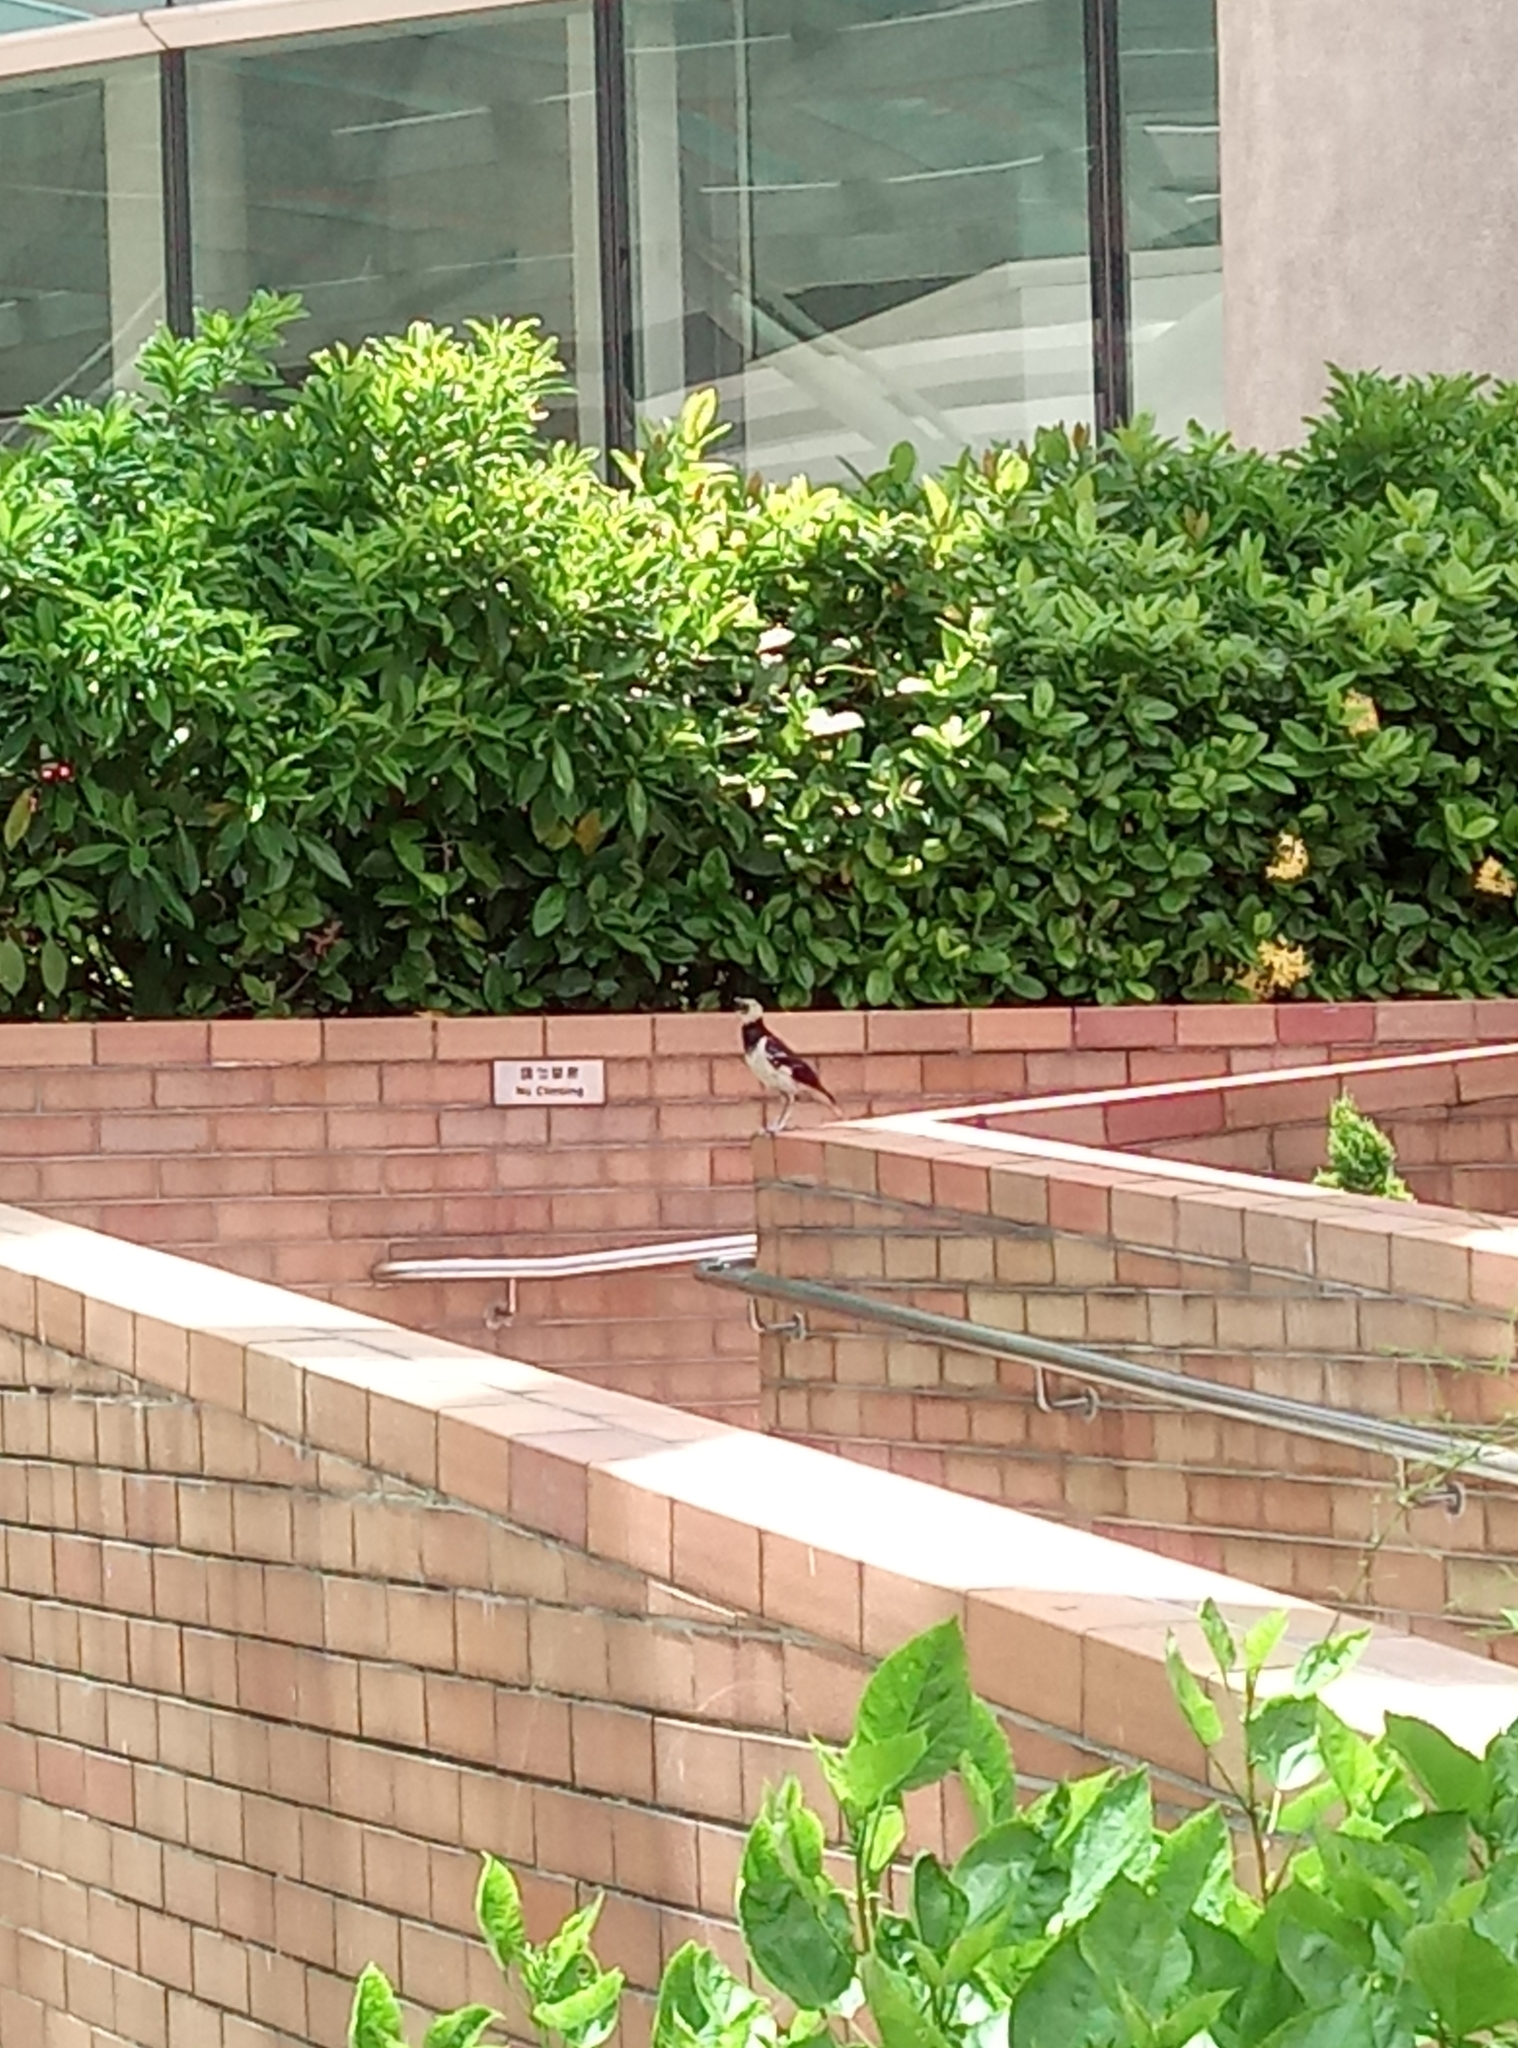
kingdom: Animalia
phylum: Chordata
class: Aves
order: Passeriformes
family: Sturnidae
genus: Gracupica
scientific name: Gracupica nigricollis
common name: Black-collared starling
